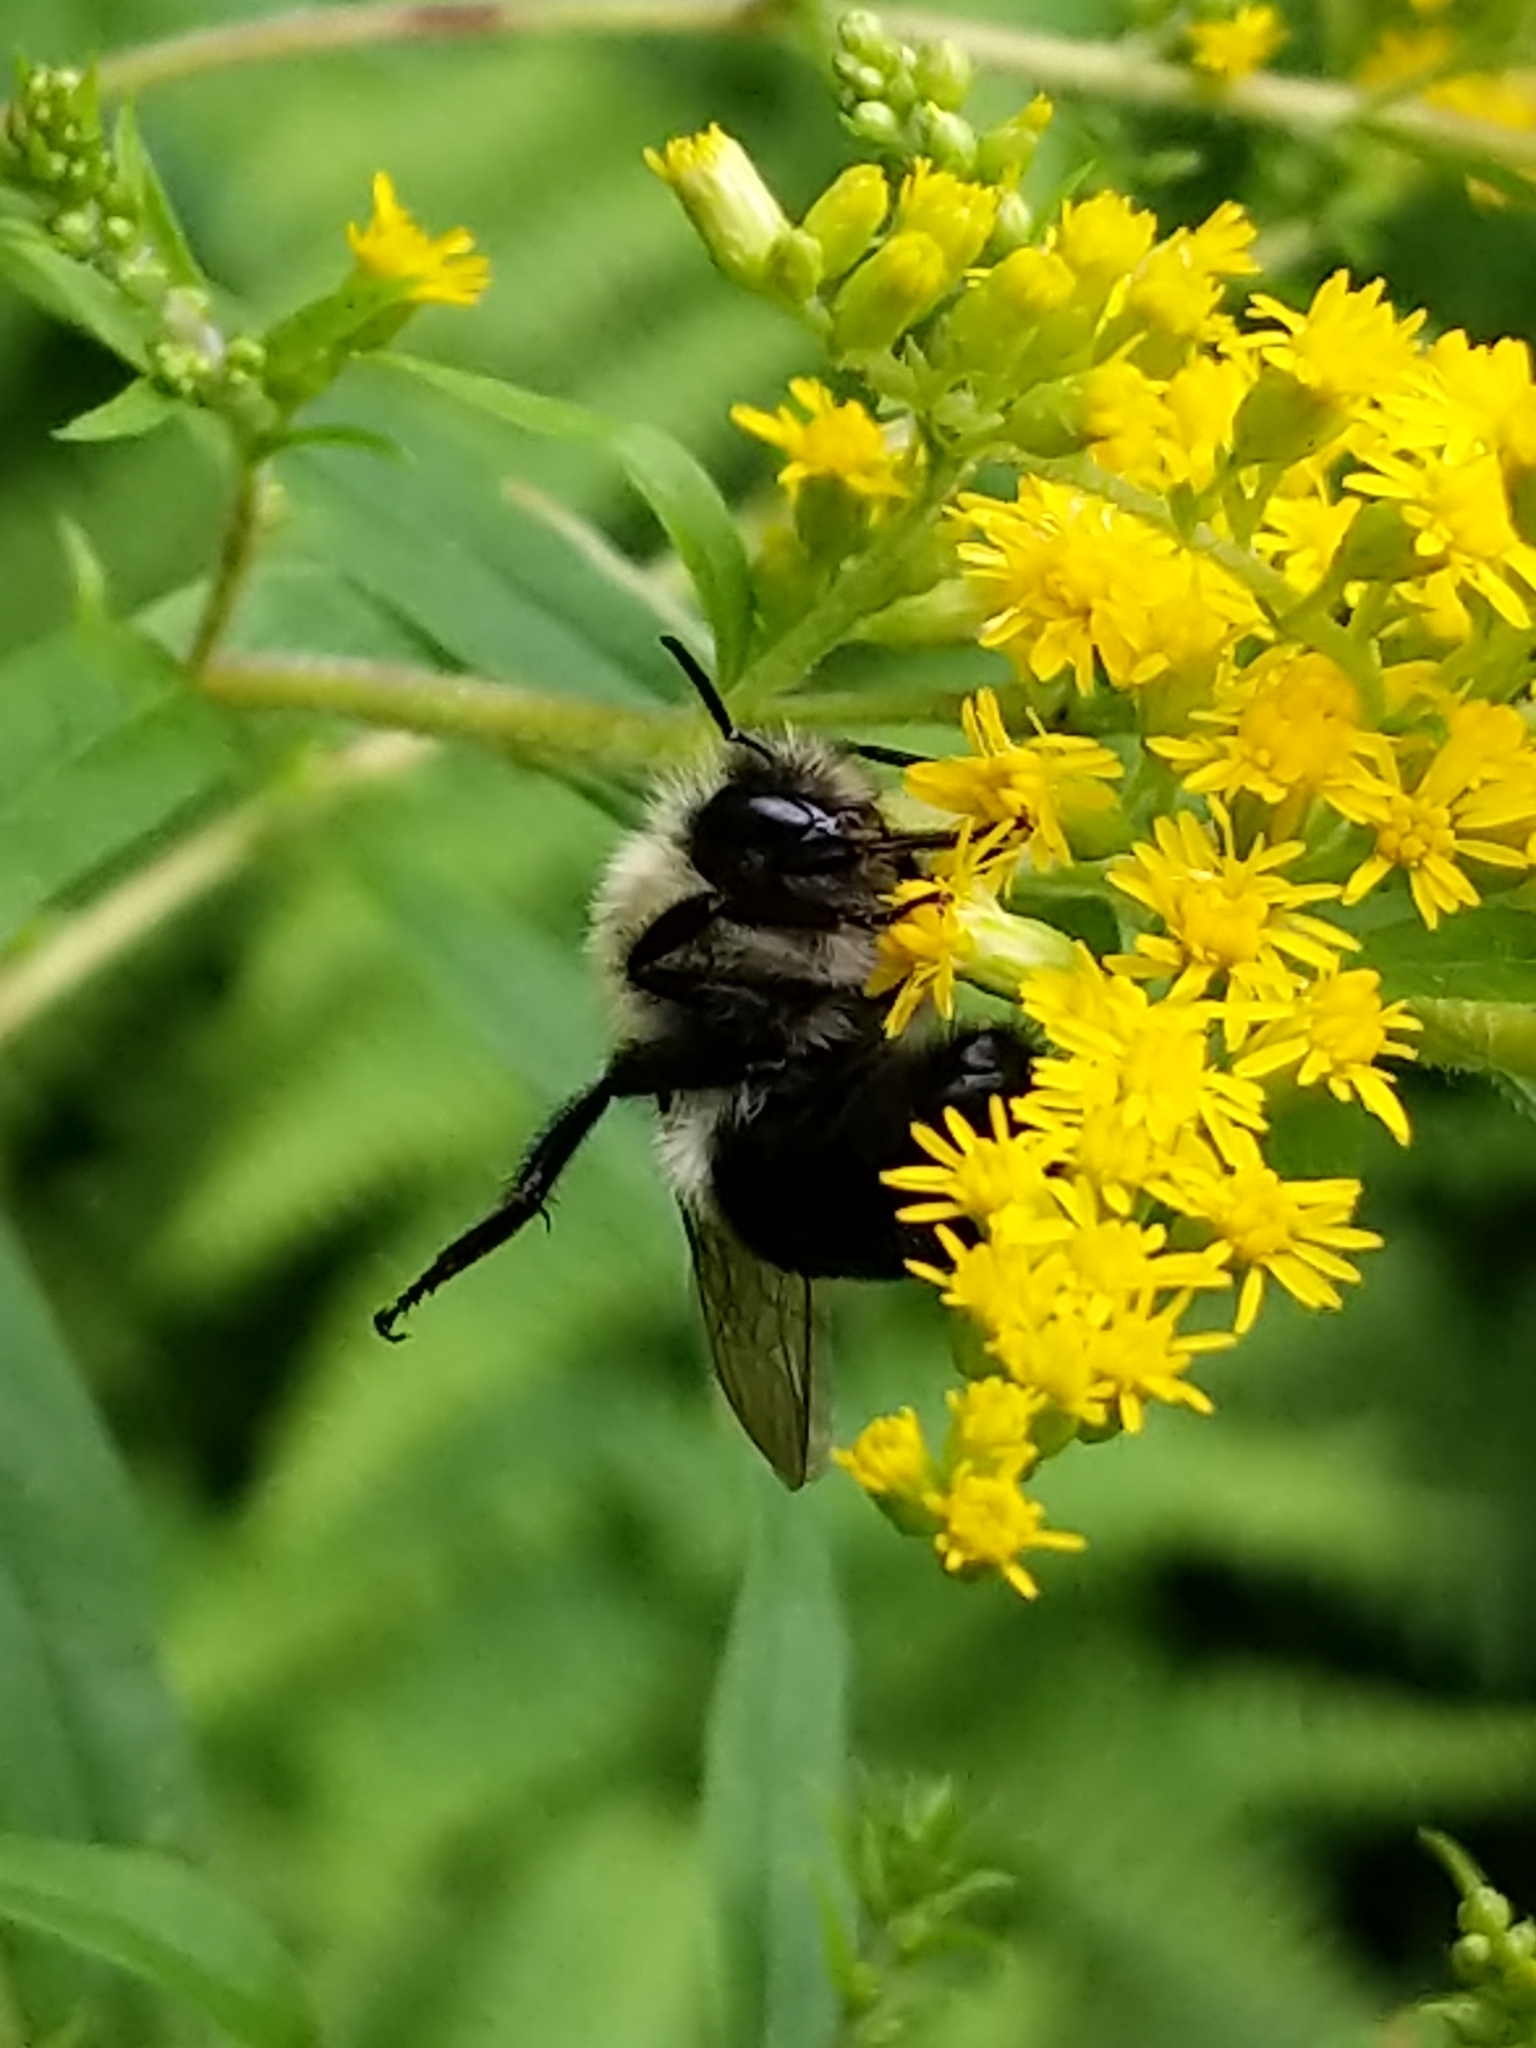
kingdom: Animalia
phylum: Arthropoda
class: Insecta
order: Hymenoptera
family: Apidae
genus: Bombus
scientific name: Bombus impatiens
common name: Common eastern bumble bee
